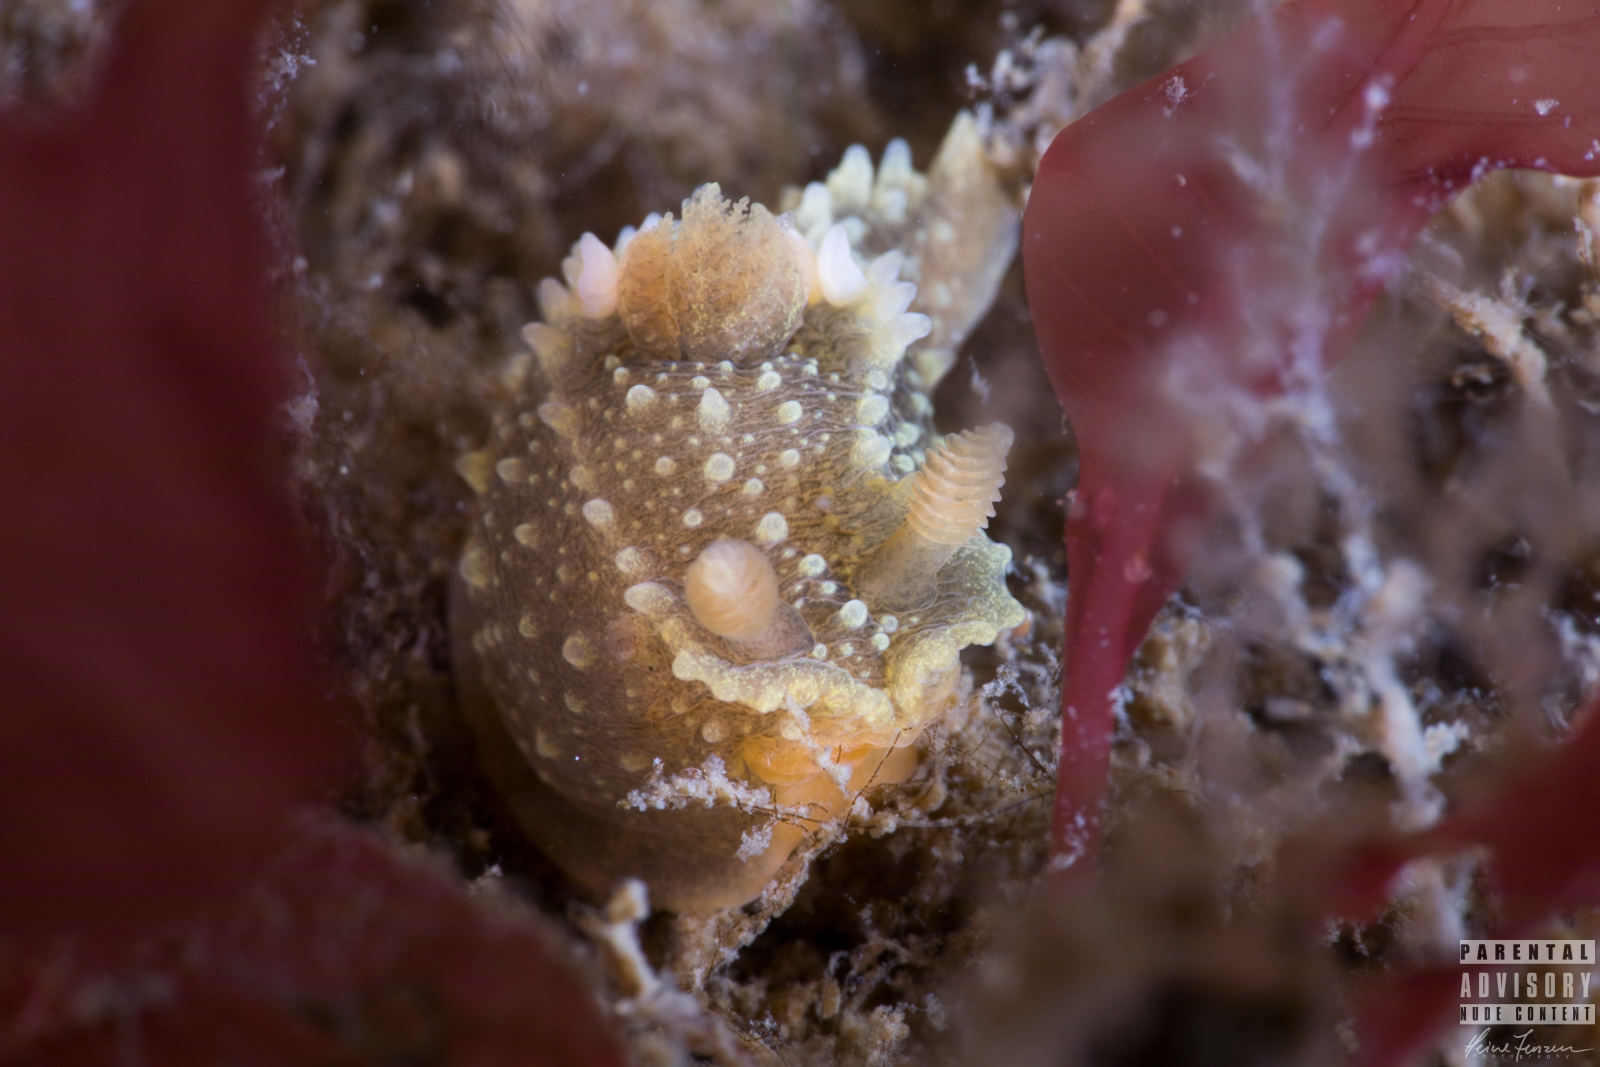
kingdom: Animalia
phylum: Mollusca
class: Gastropoda
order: Nudibranchia
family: Polyceridae
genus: Palio
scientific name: Palio dubia
